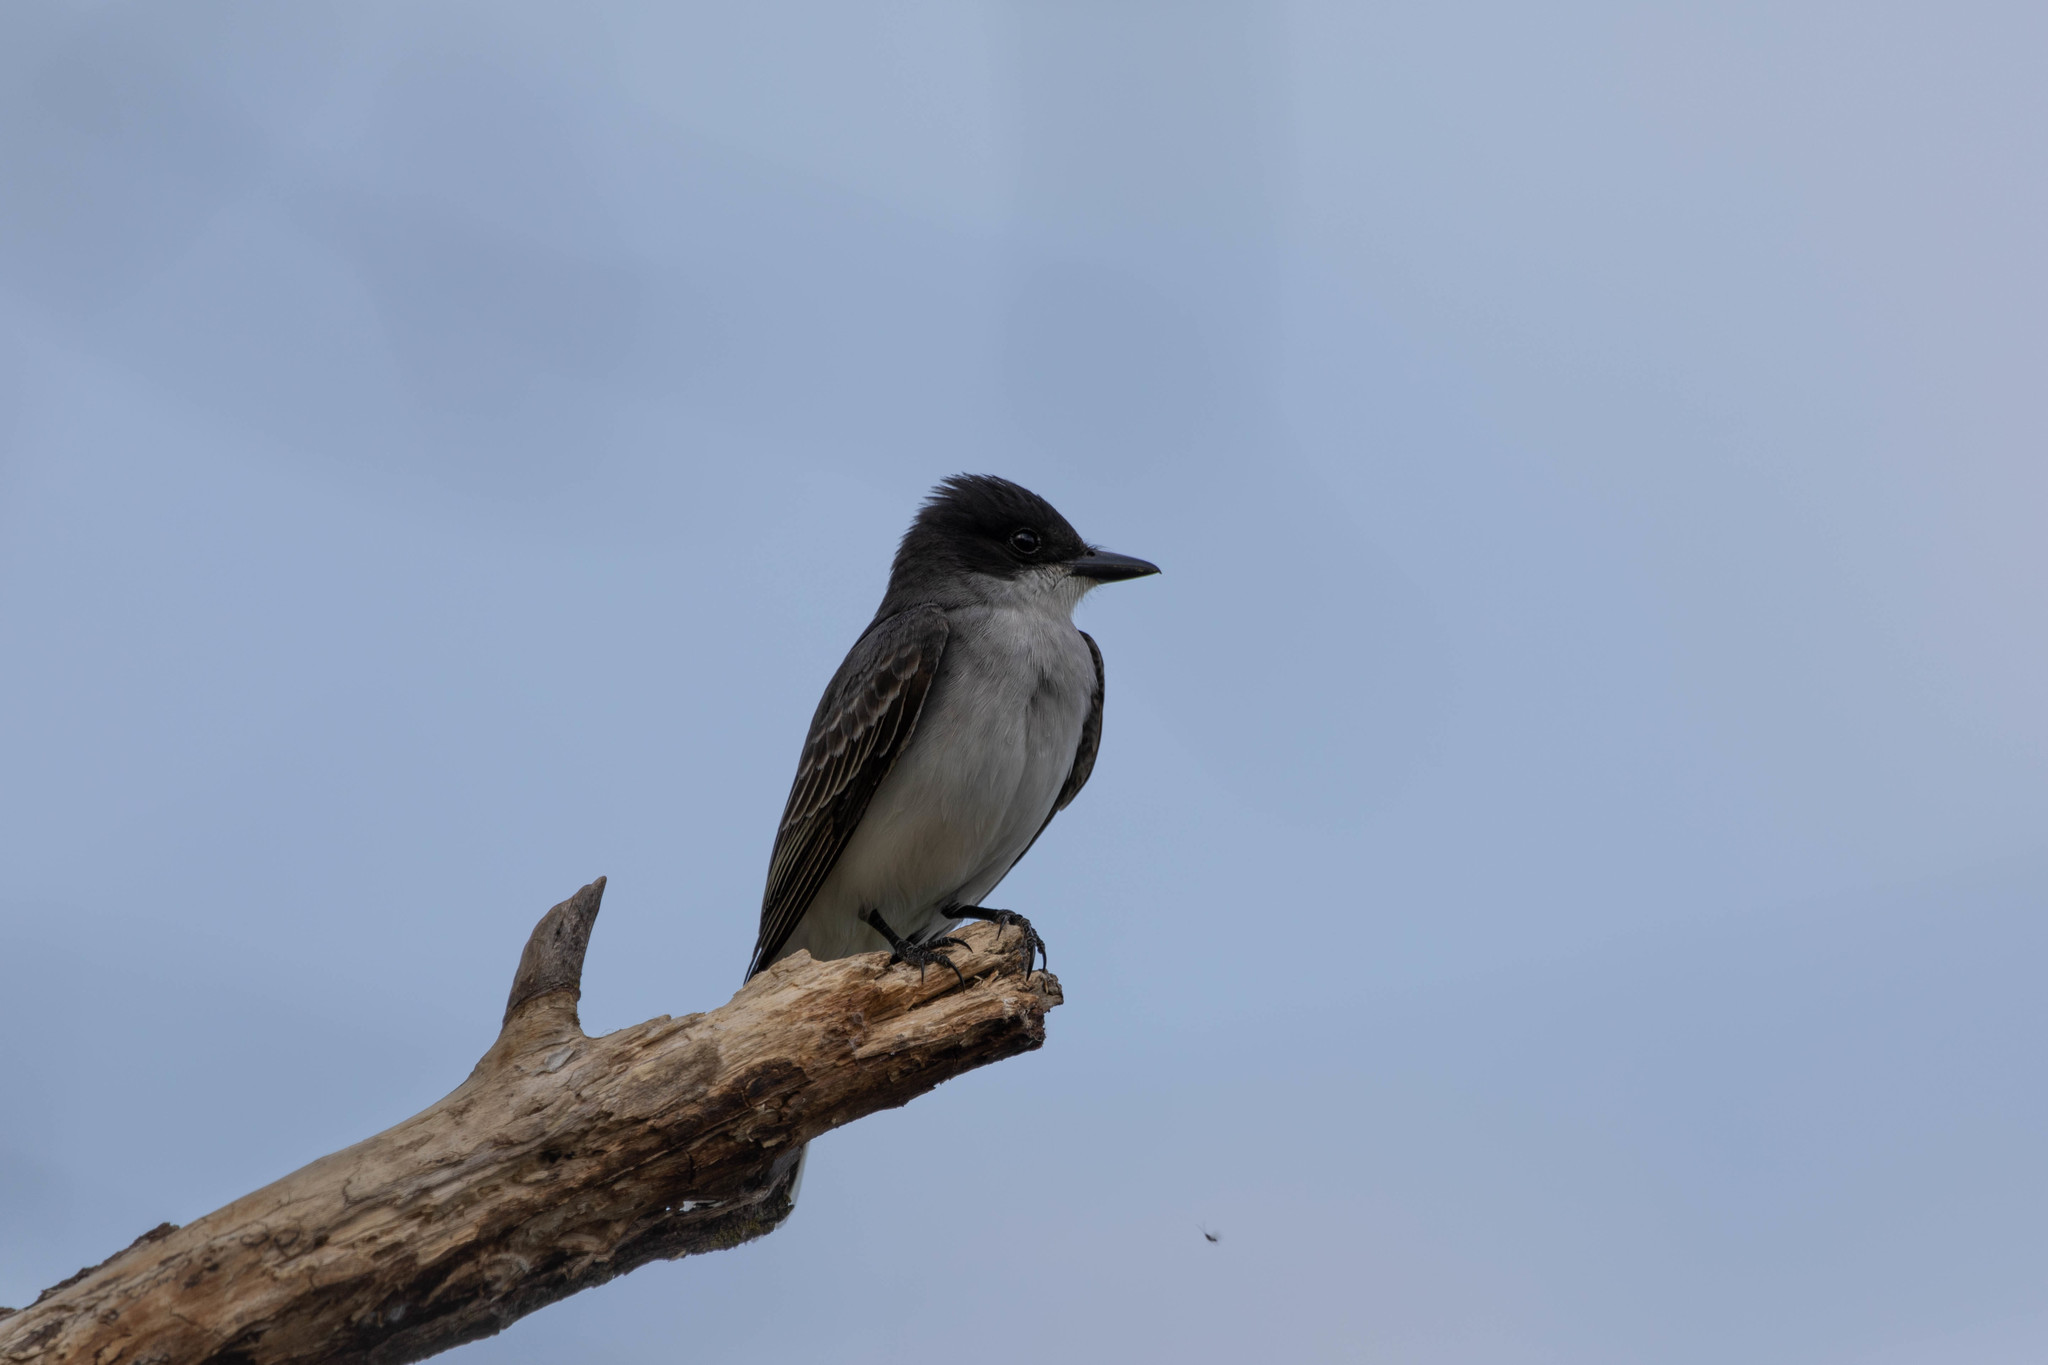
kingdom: Animalia
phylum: Chordata
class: Aves
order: Passeriformes
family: Tyrannidae
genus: Tyrannus
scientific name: Tyrannus tyrannus
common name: Eastern kingbird
